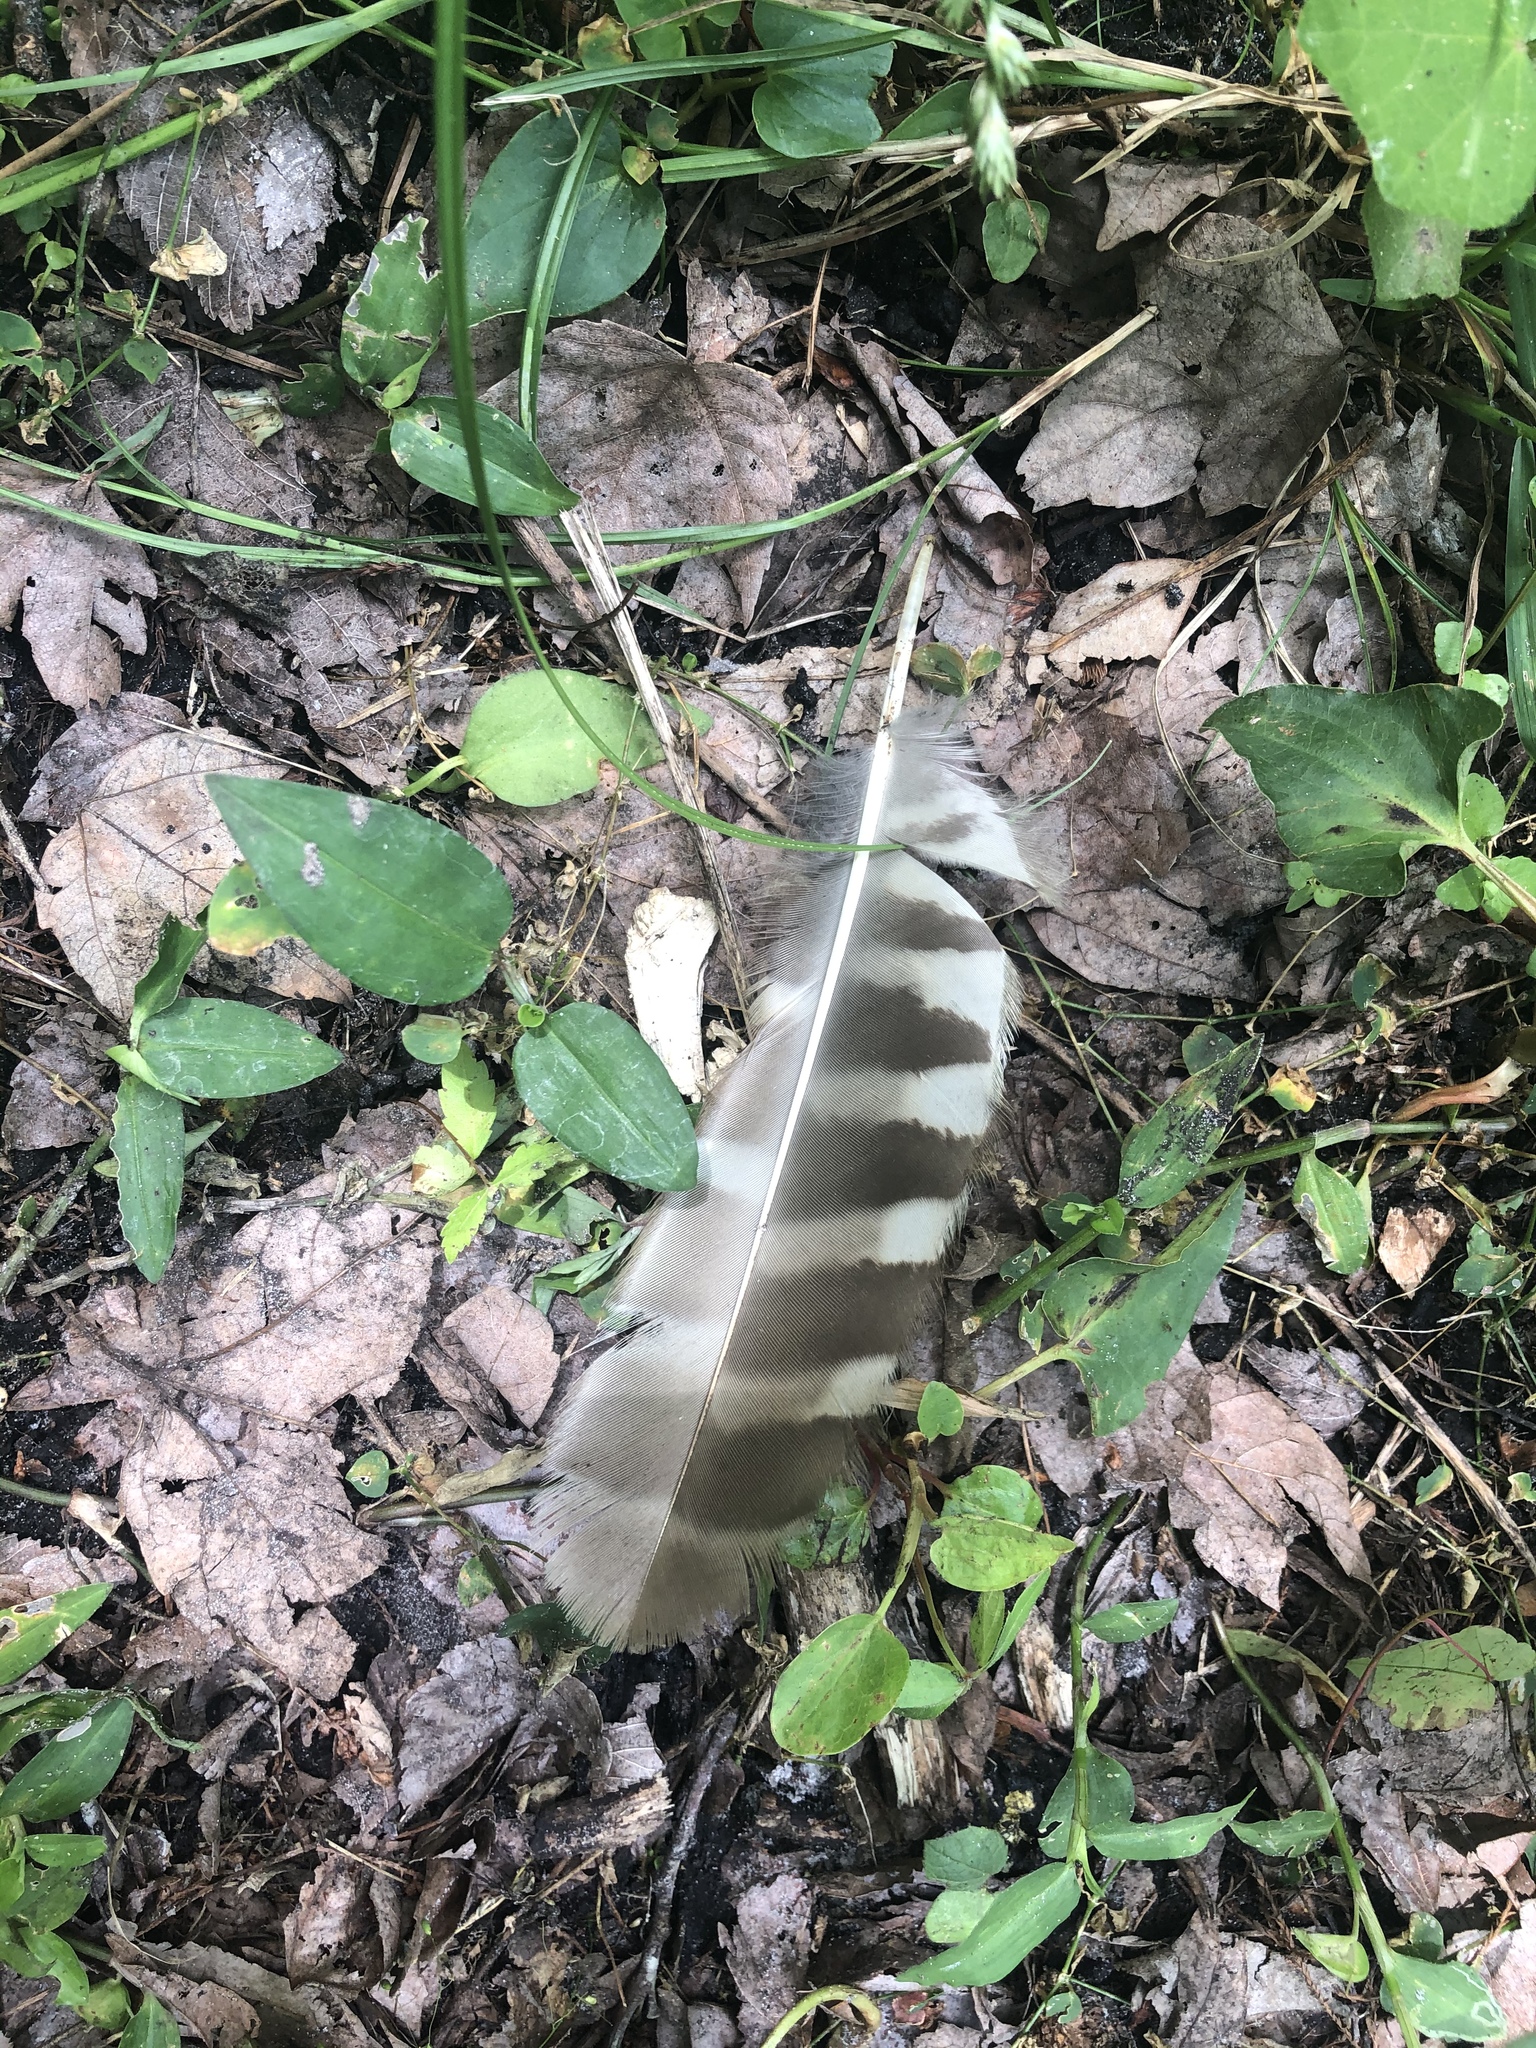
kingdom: Animalia
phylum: Chordata
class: Aves
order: Strigiformes
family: Strigidae
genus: Strix
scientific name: Strix varia
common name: Barred owl
